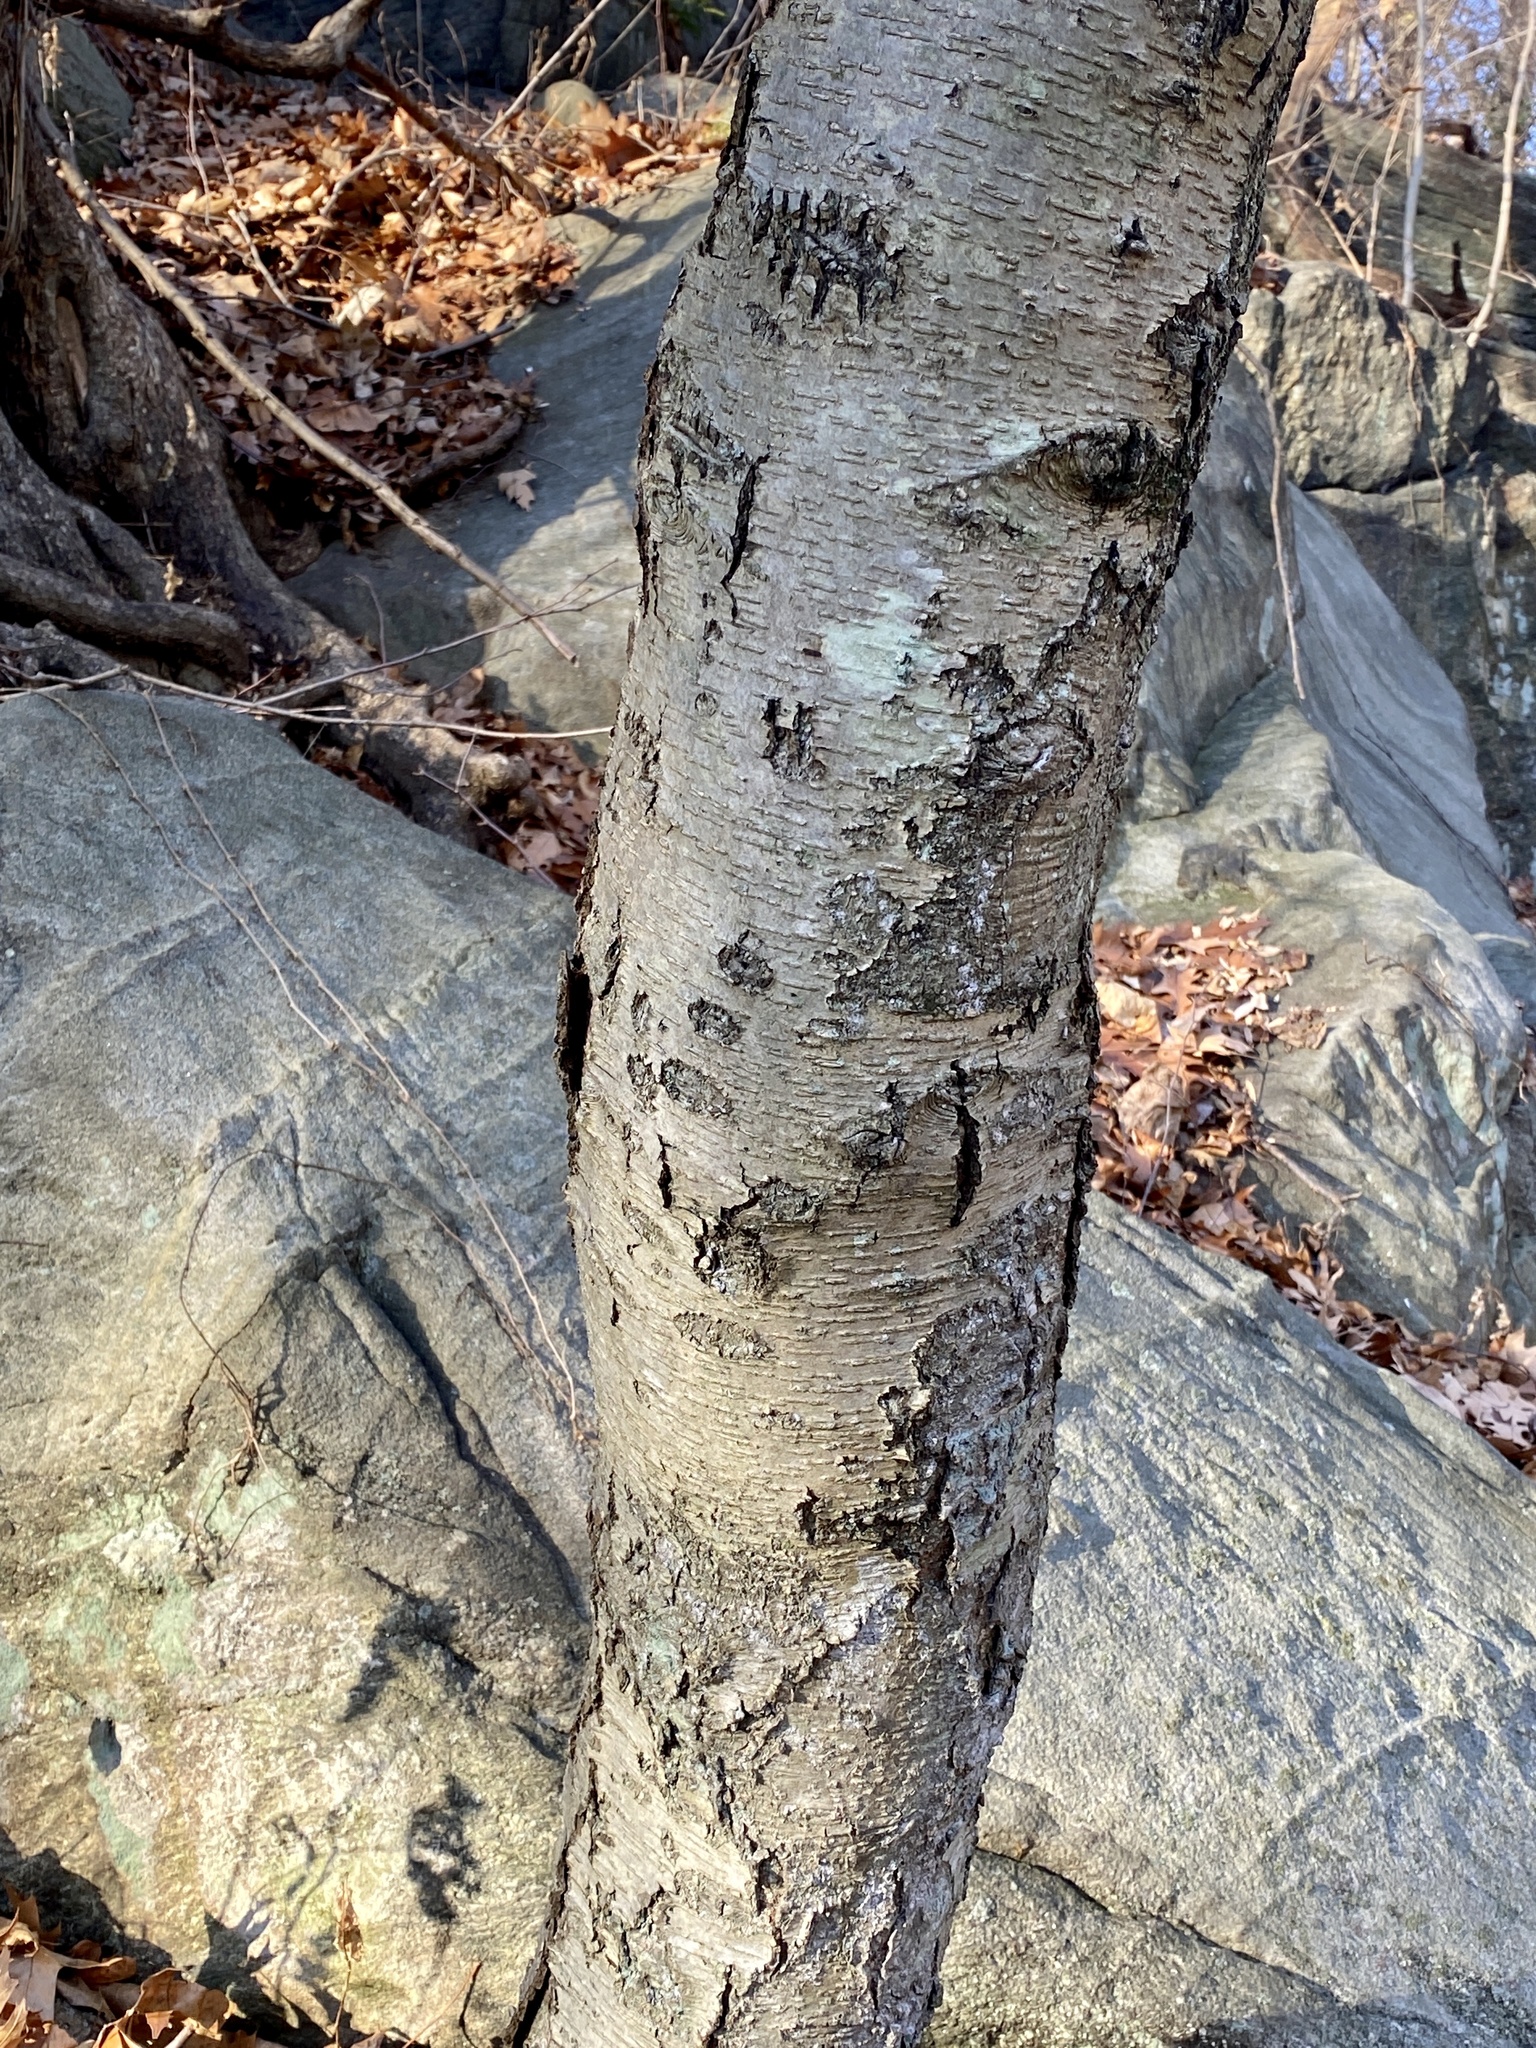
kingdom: Plantae
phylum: Tracheophyta
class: Magnoliopsida
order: Fagales
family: Betulaceae
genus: Betula
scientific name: Betula lenta
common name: Black birch
